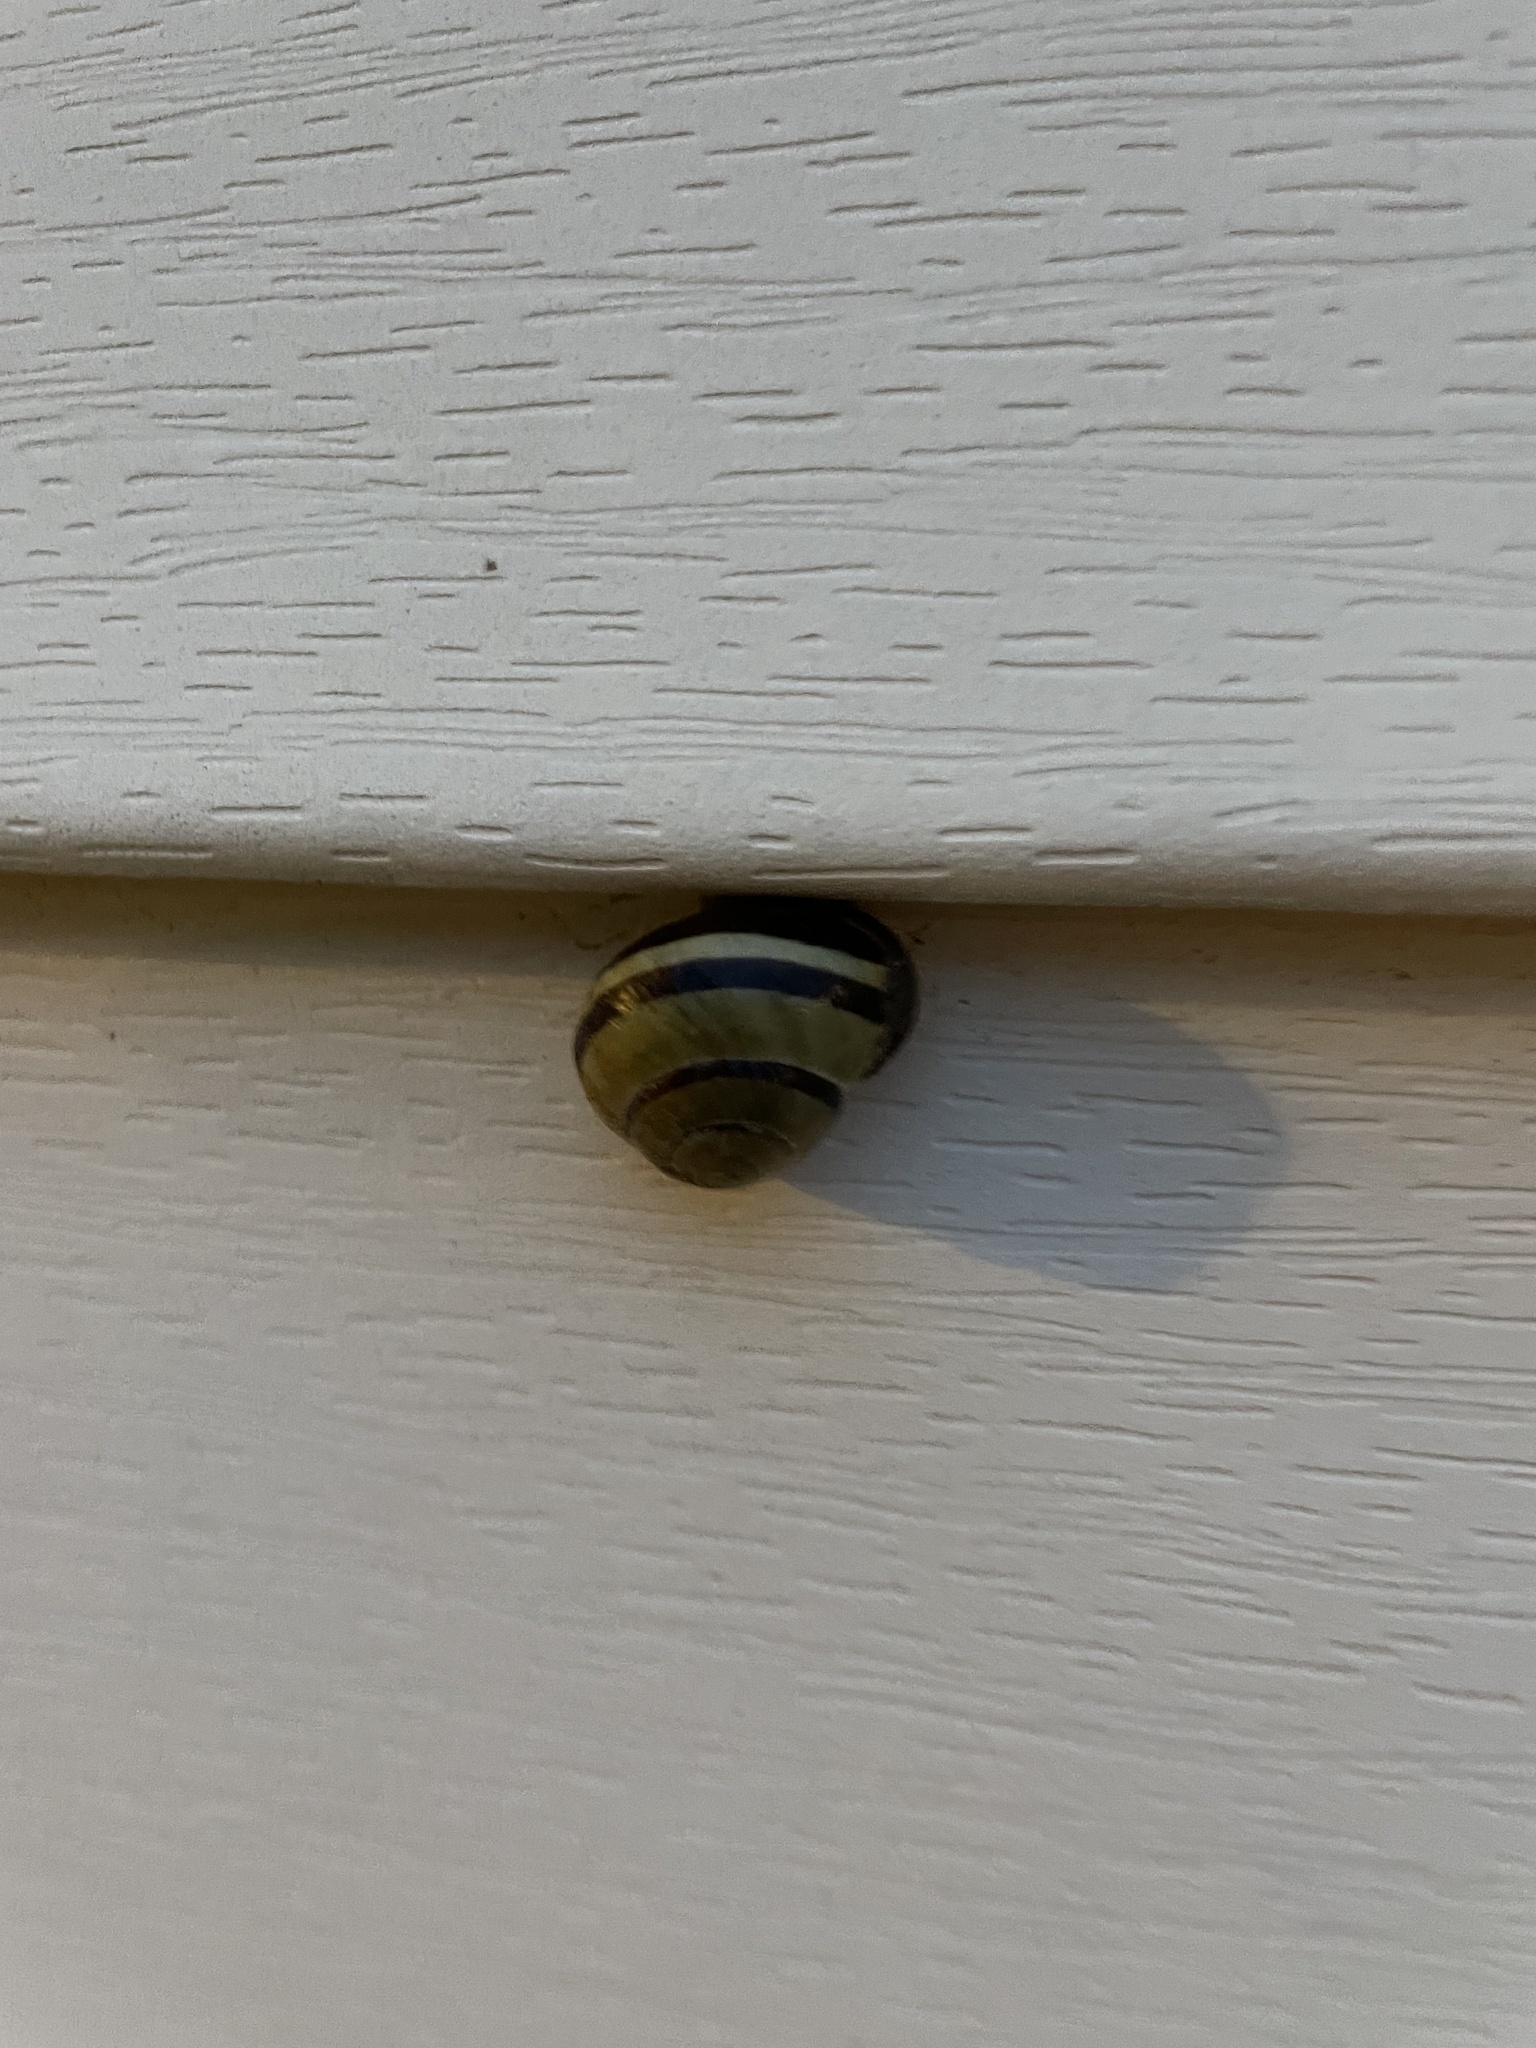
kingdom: Animalia
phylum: Mollusca
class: Gastropoda
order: Stylommatophora
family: Helicidae
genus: Cepaea
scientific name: Cepaea nemoralis
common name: Grovesnail
